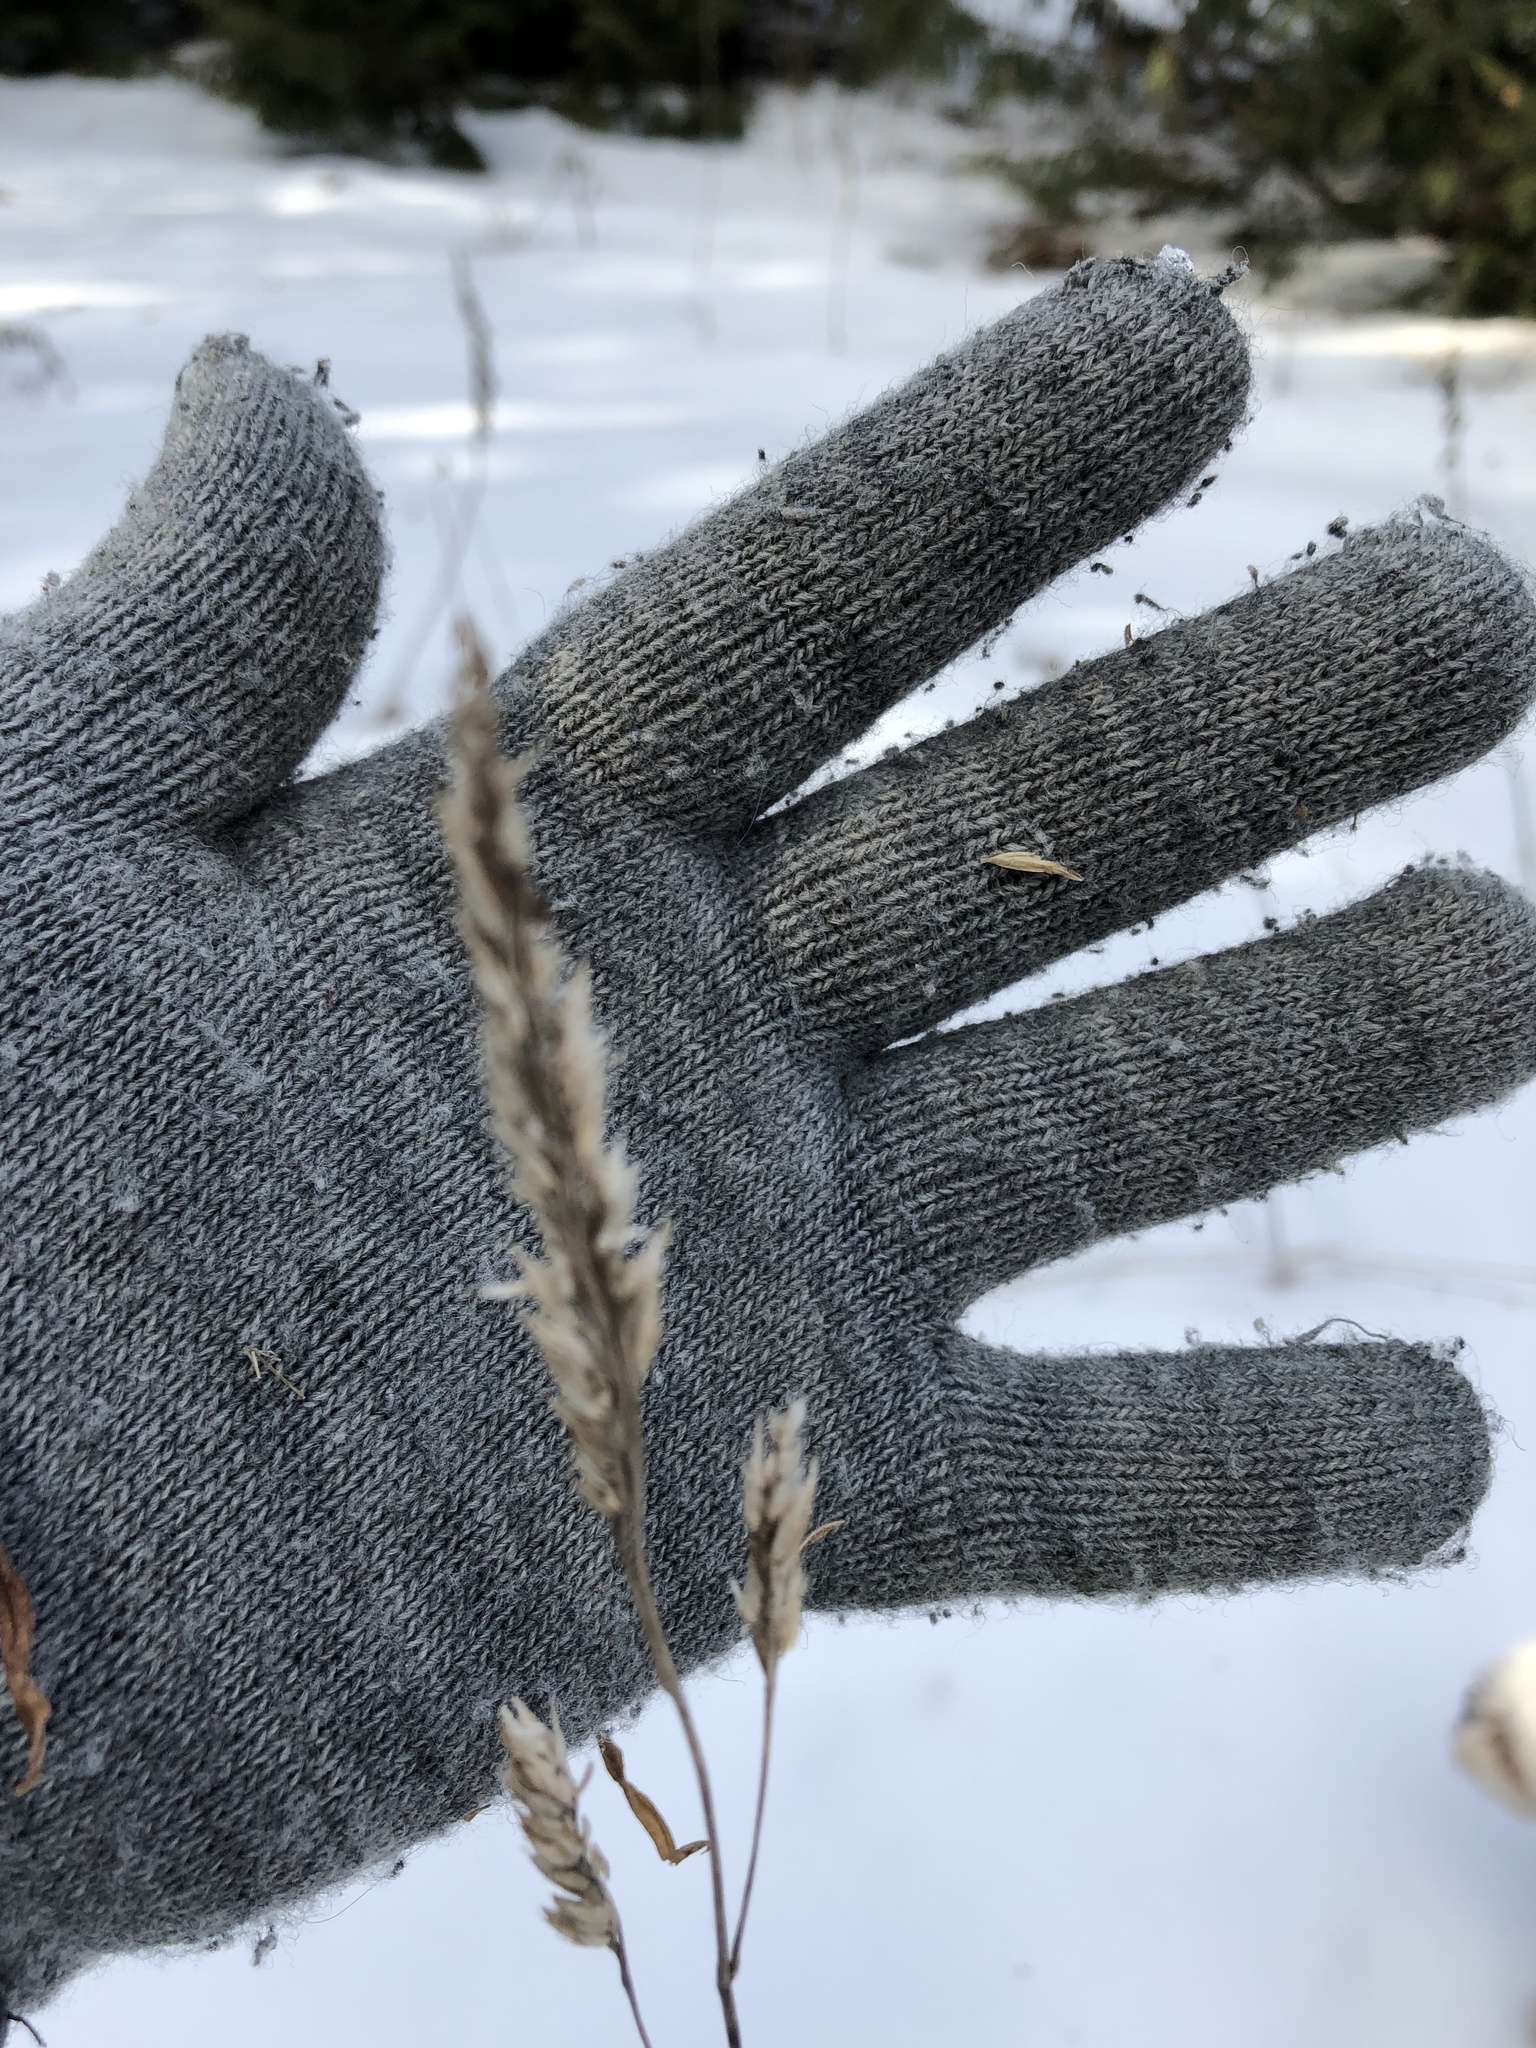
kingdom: Plantae
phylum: Tracheophyta
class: Liliopsida
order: Poales
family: Poaceae
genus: Dactylis
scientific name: Dactylis glomerata
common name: Orchardgrass
